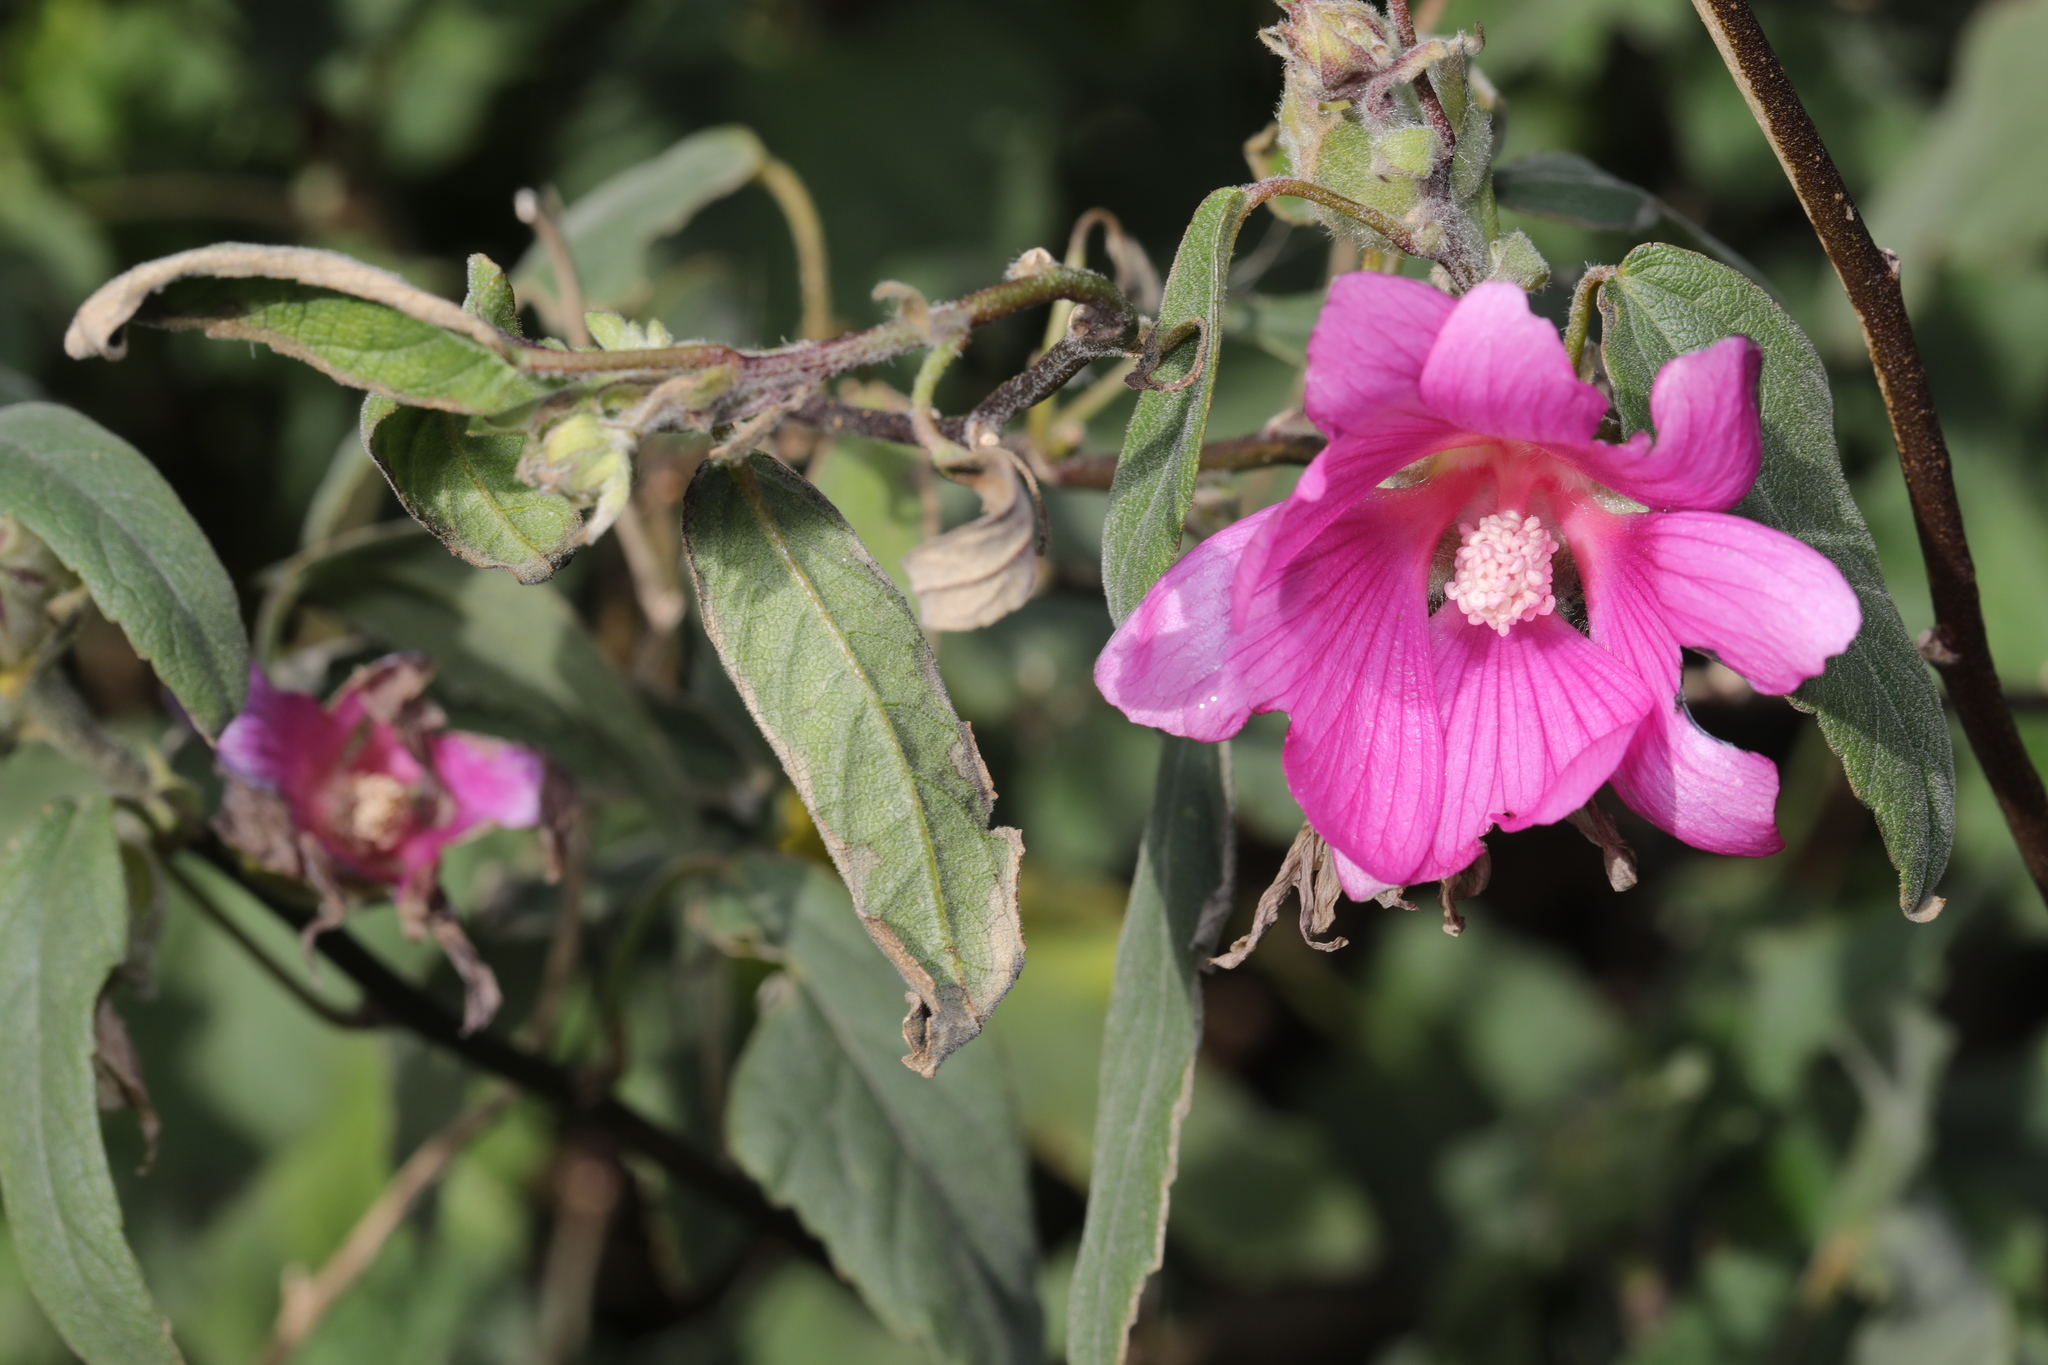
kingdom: Plantae
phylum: Tracheophyta
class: Magnoliopsida
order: Malvales
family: Malvaceae
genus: Malva
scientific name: Malva clementii
